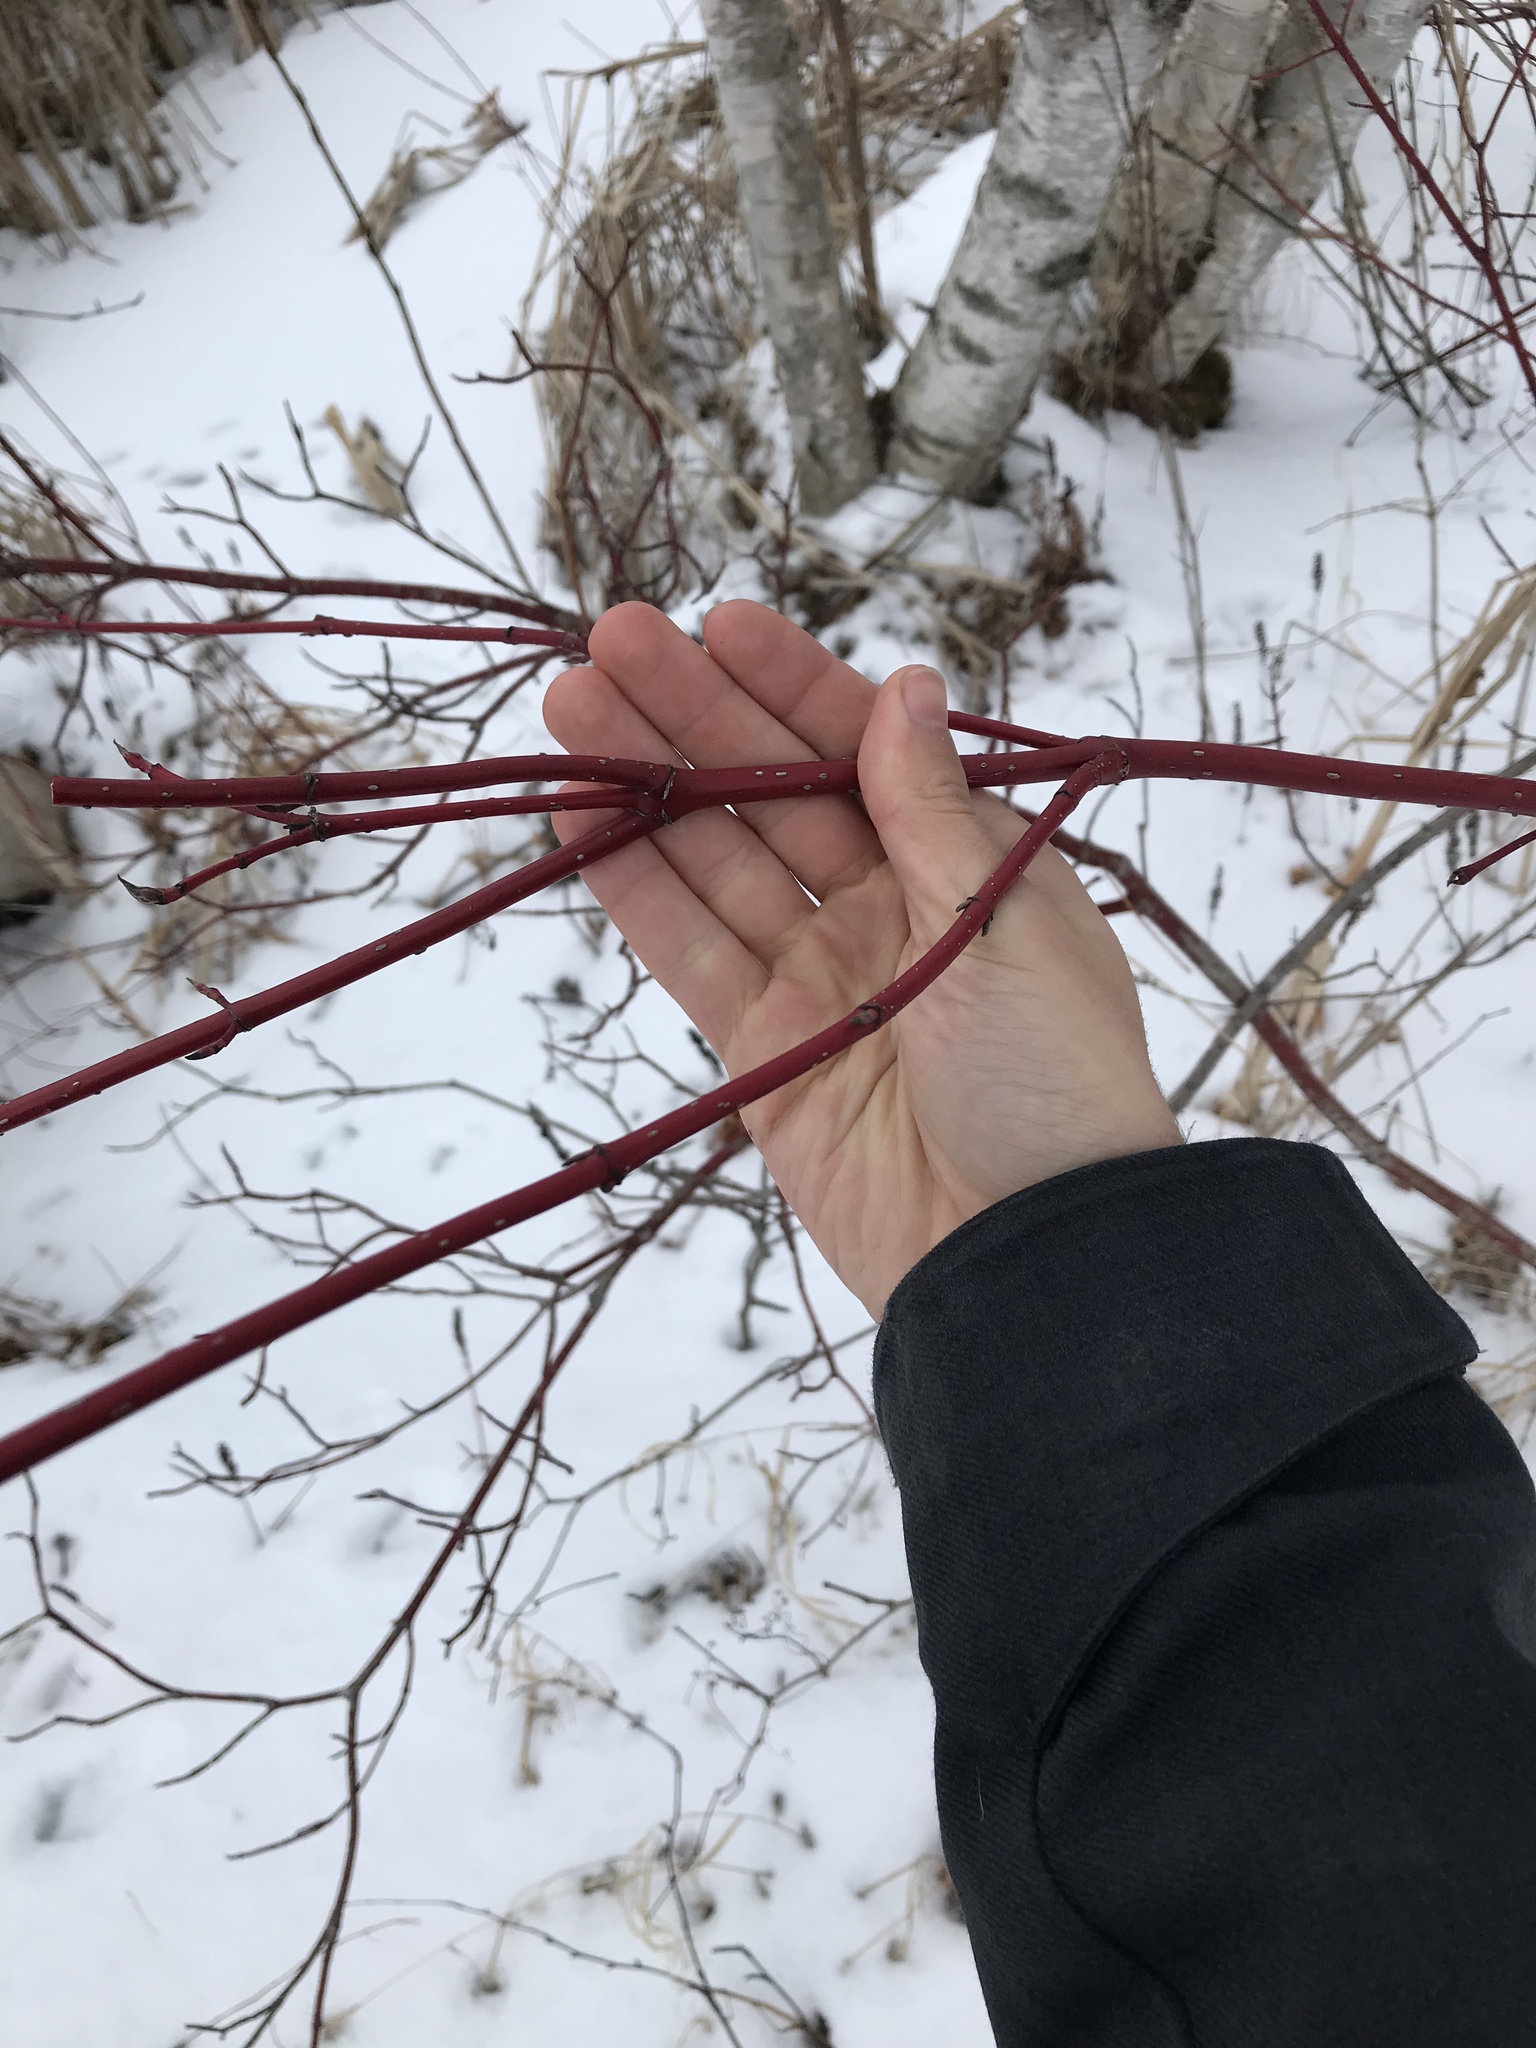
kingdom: Plantae
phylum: Tracheophyta
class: Magnoliopsida
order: Cornales
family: Cornaceae
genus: Cornus
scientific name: Cornus sericea
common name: Red-osier dogwood
